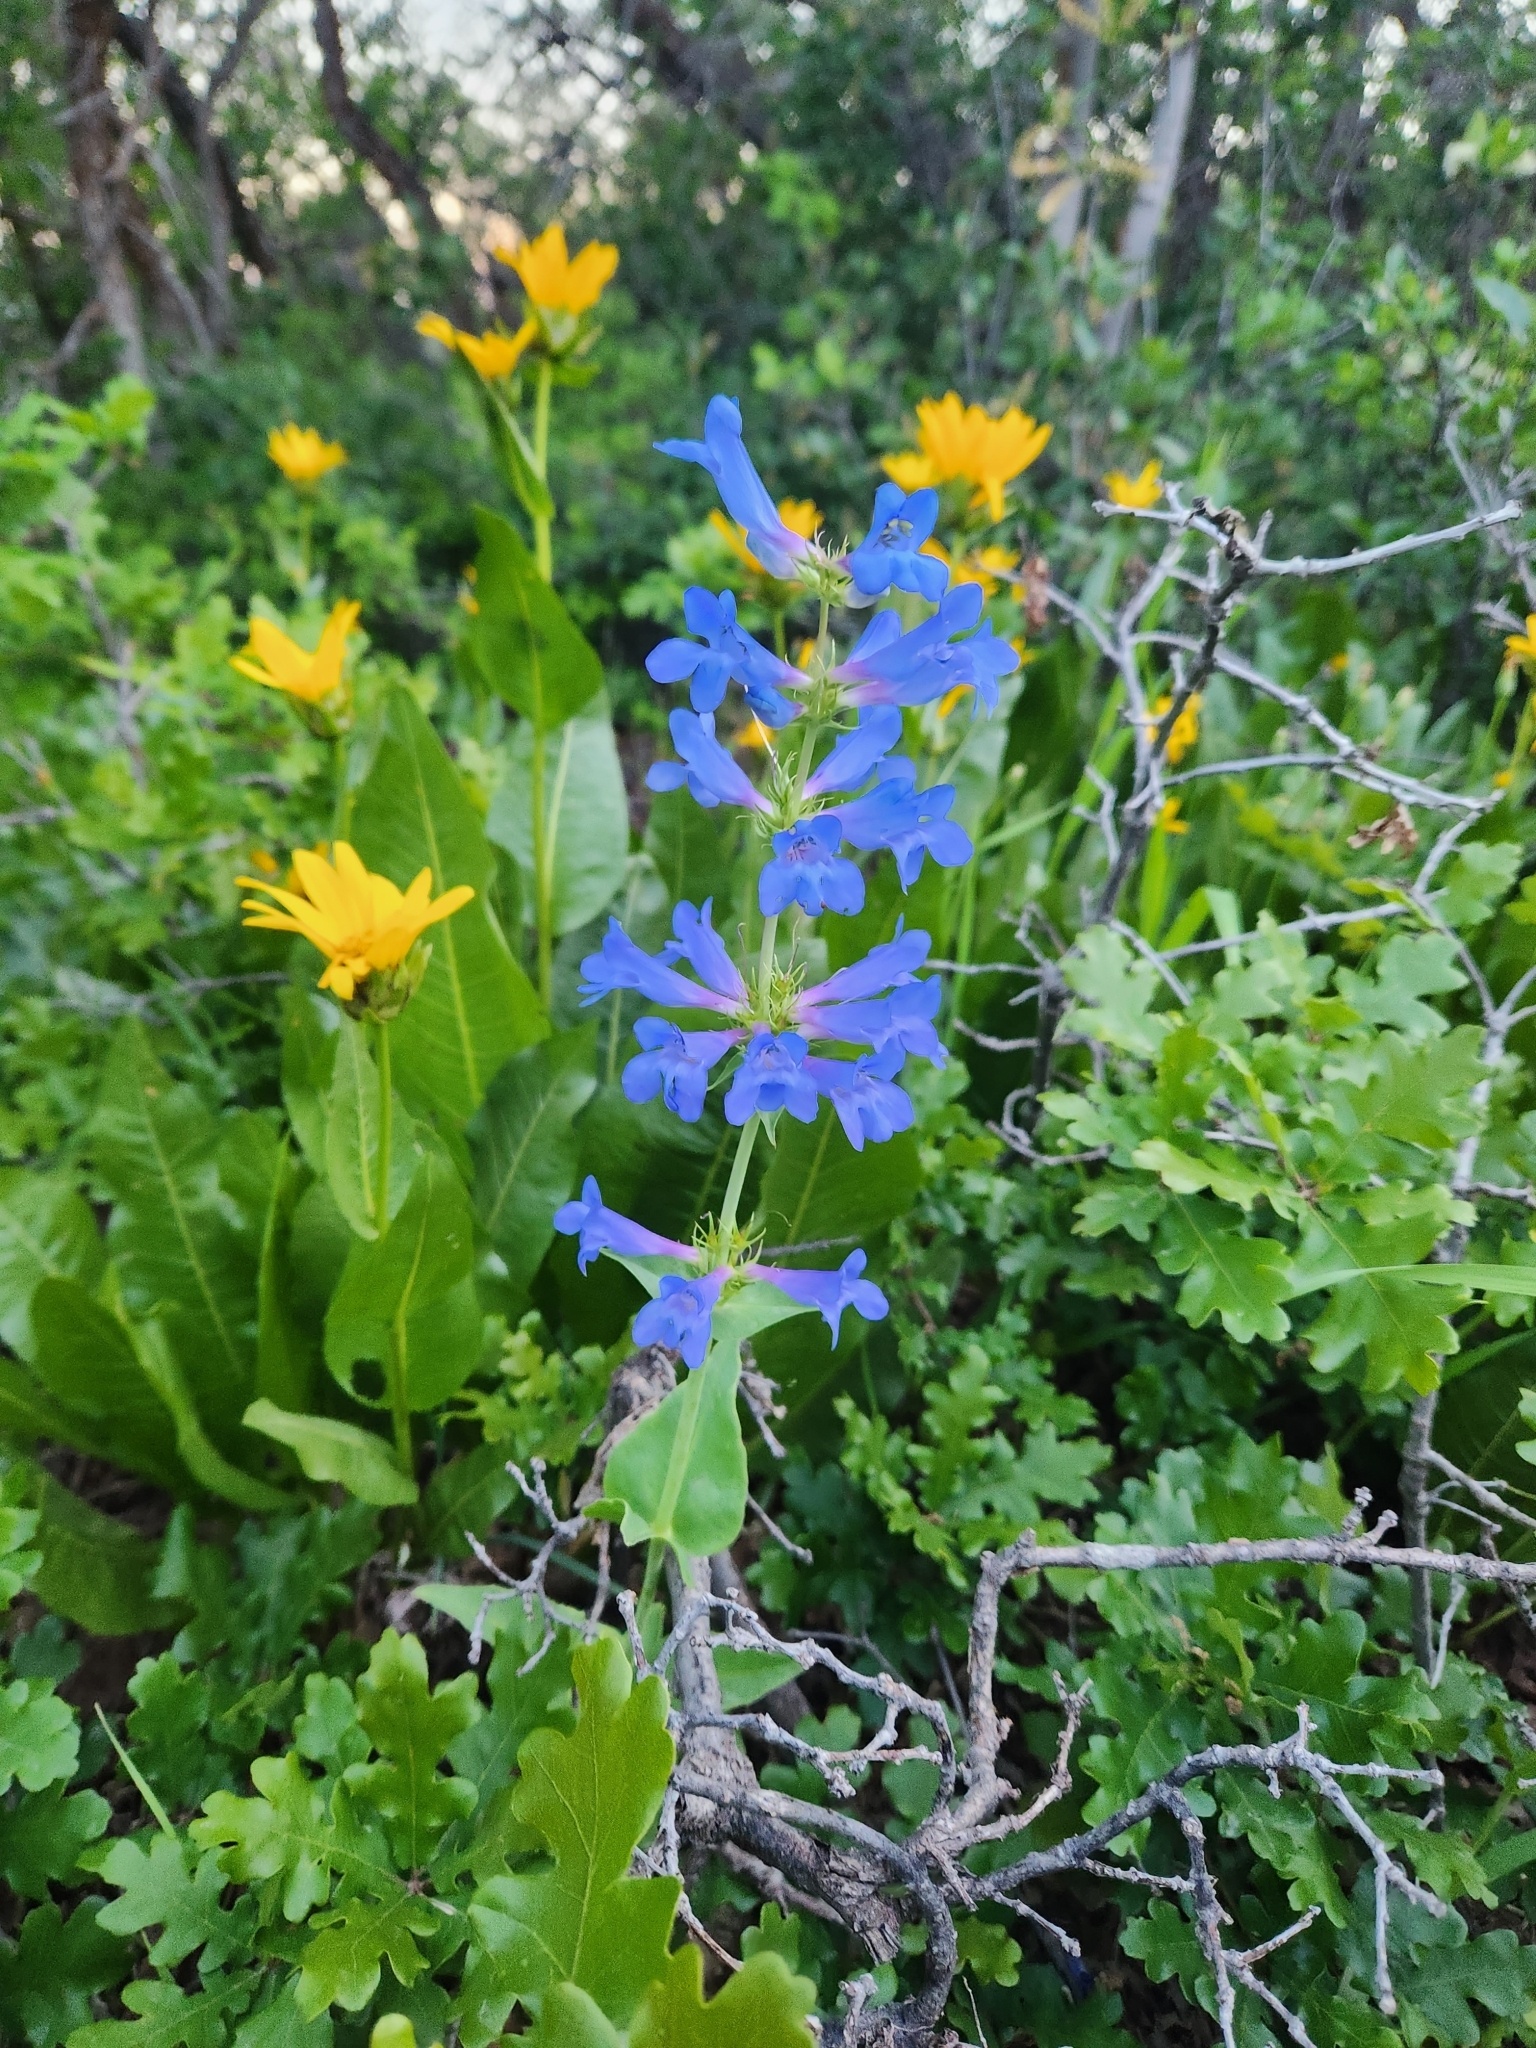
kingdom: Plantae
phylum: Tracheophyta
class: Magnoliopsida
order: Lamiales
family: Plantaginaceae
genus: Penstemon
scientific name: Penstemon cyananthus
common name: Wasatch penstemon
